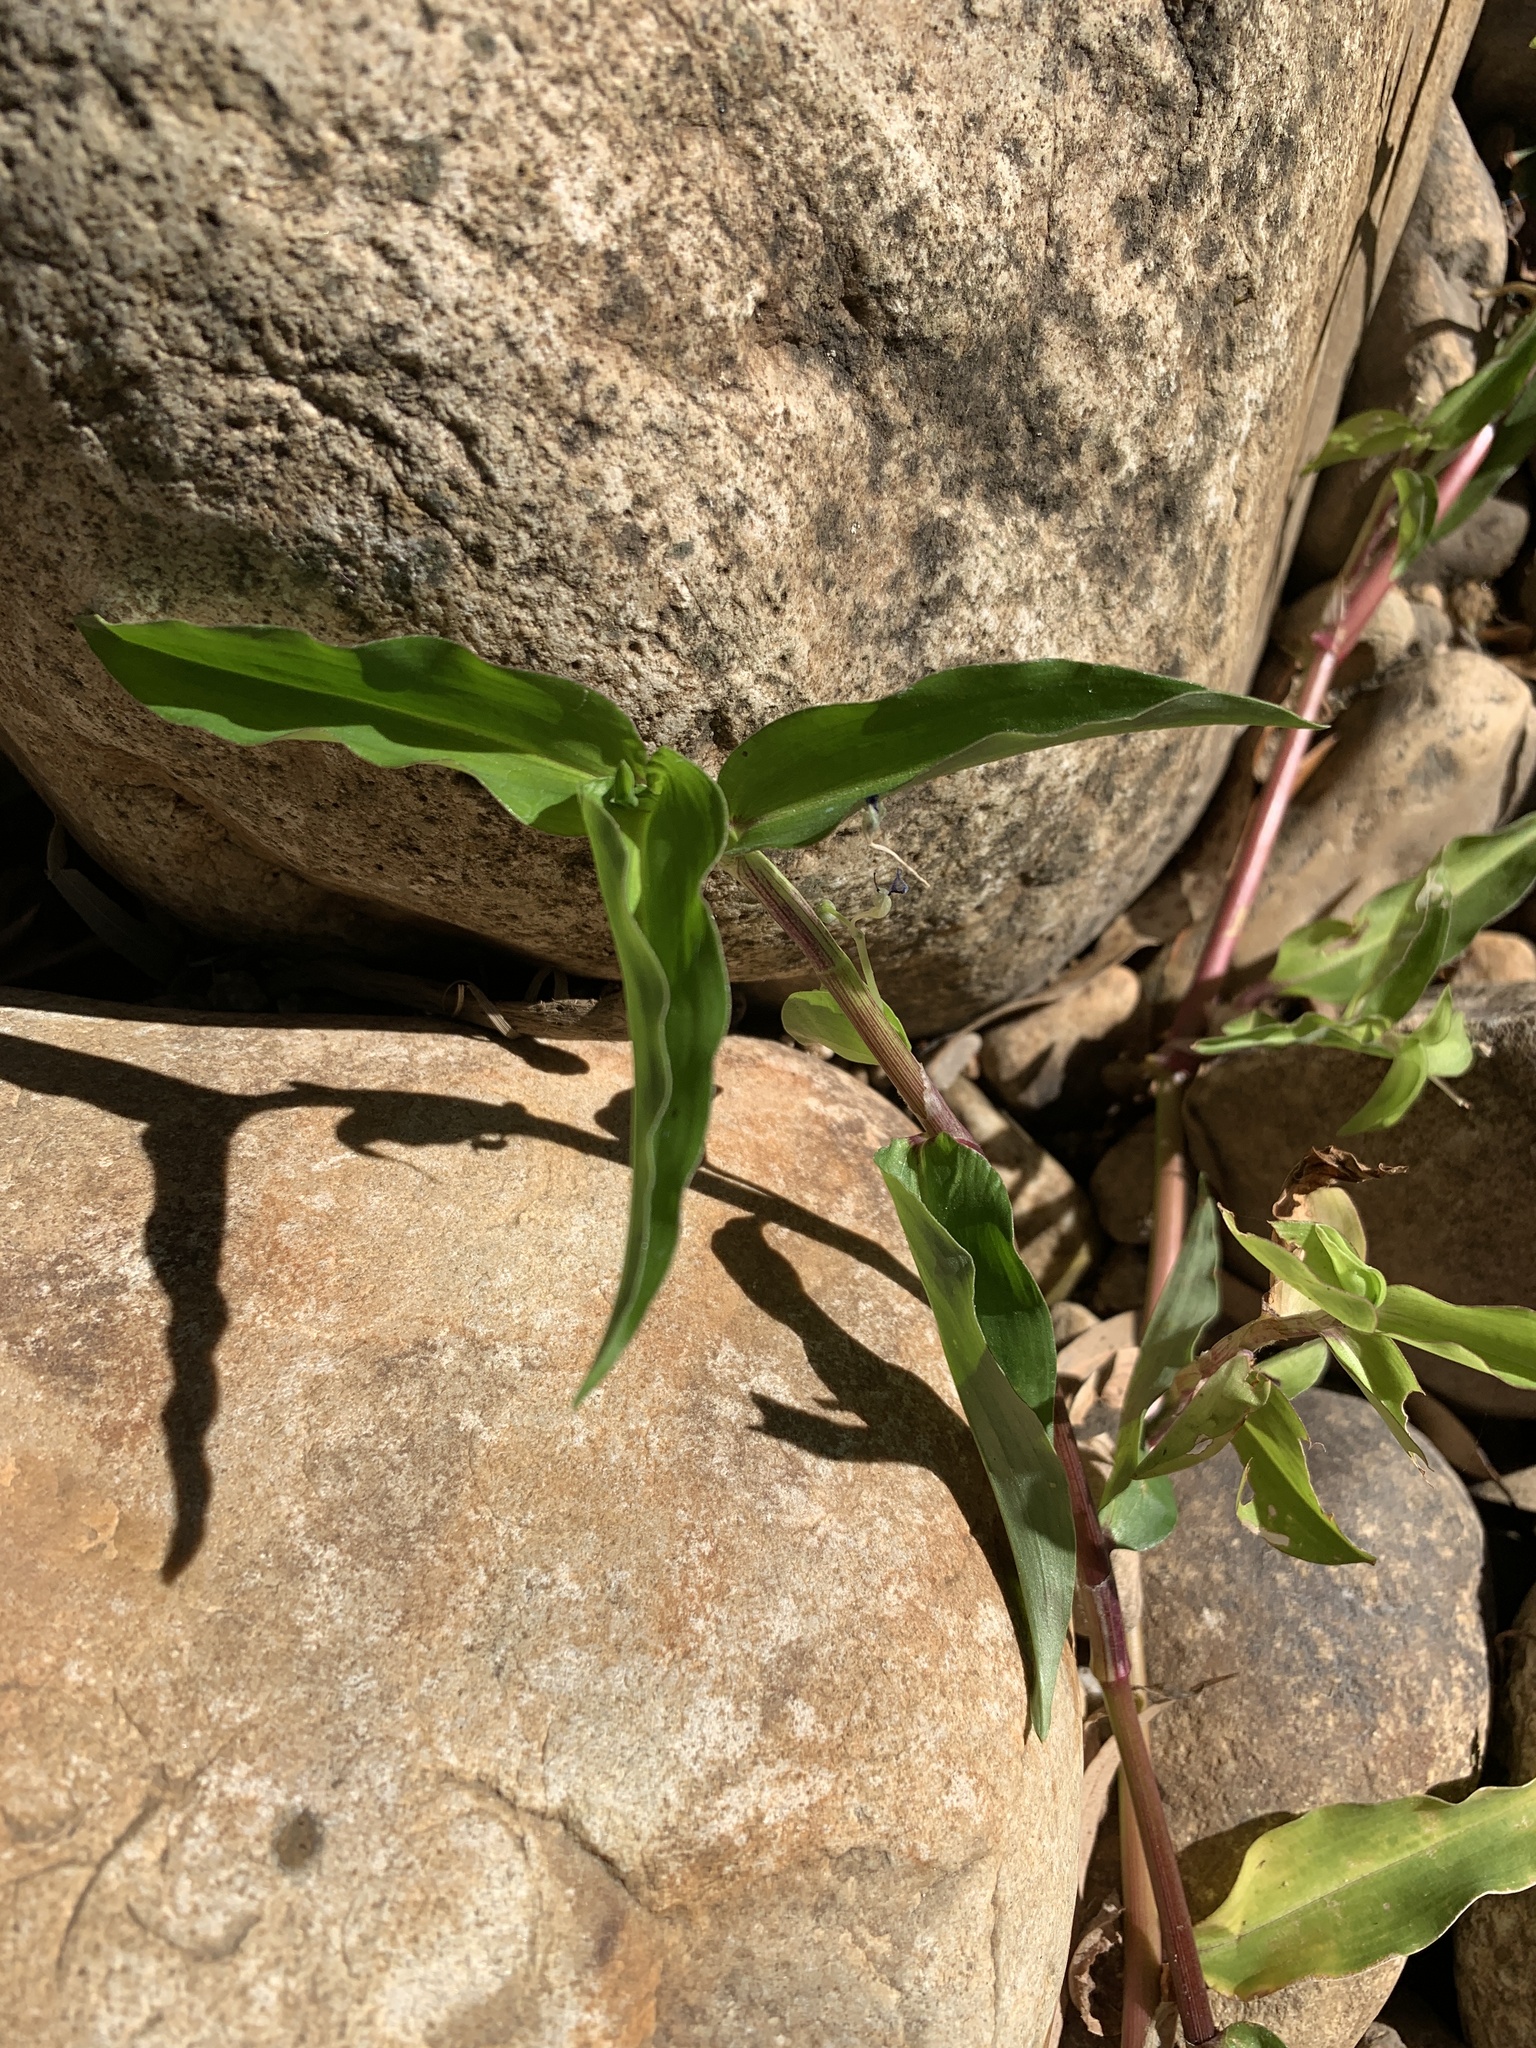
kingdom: Plantae
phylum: Tracheophyta
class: Liliopsida
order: Commelinales
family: Commelinaceae
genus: Commelina
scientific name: Commelina diffusa
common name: Climbing dayflower
